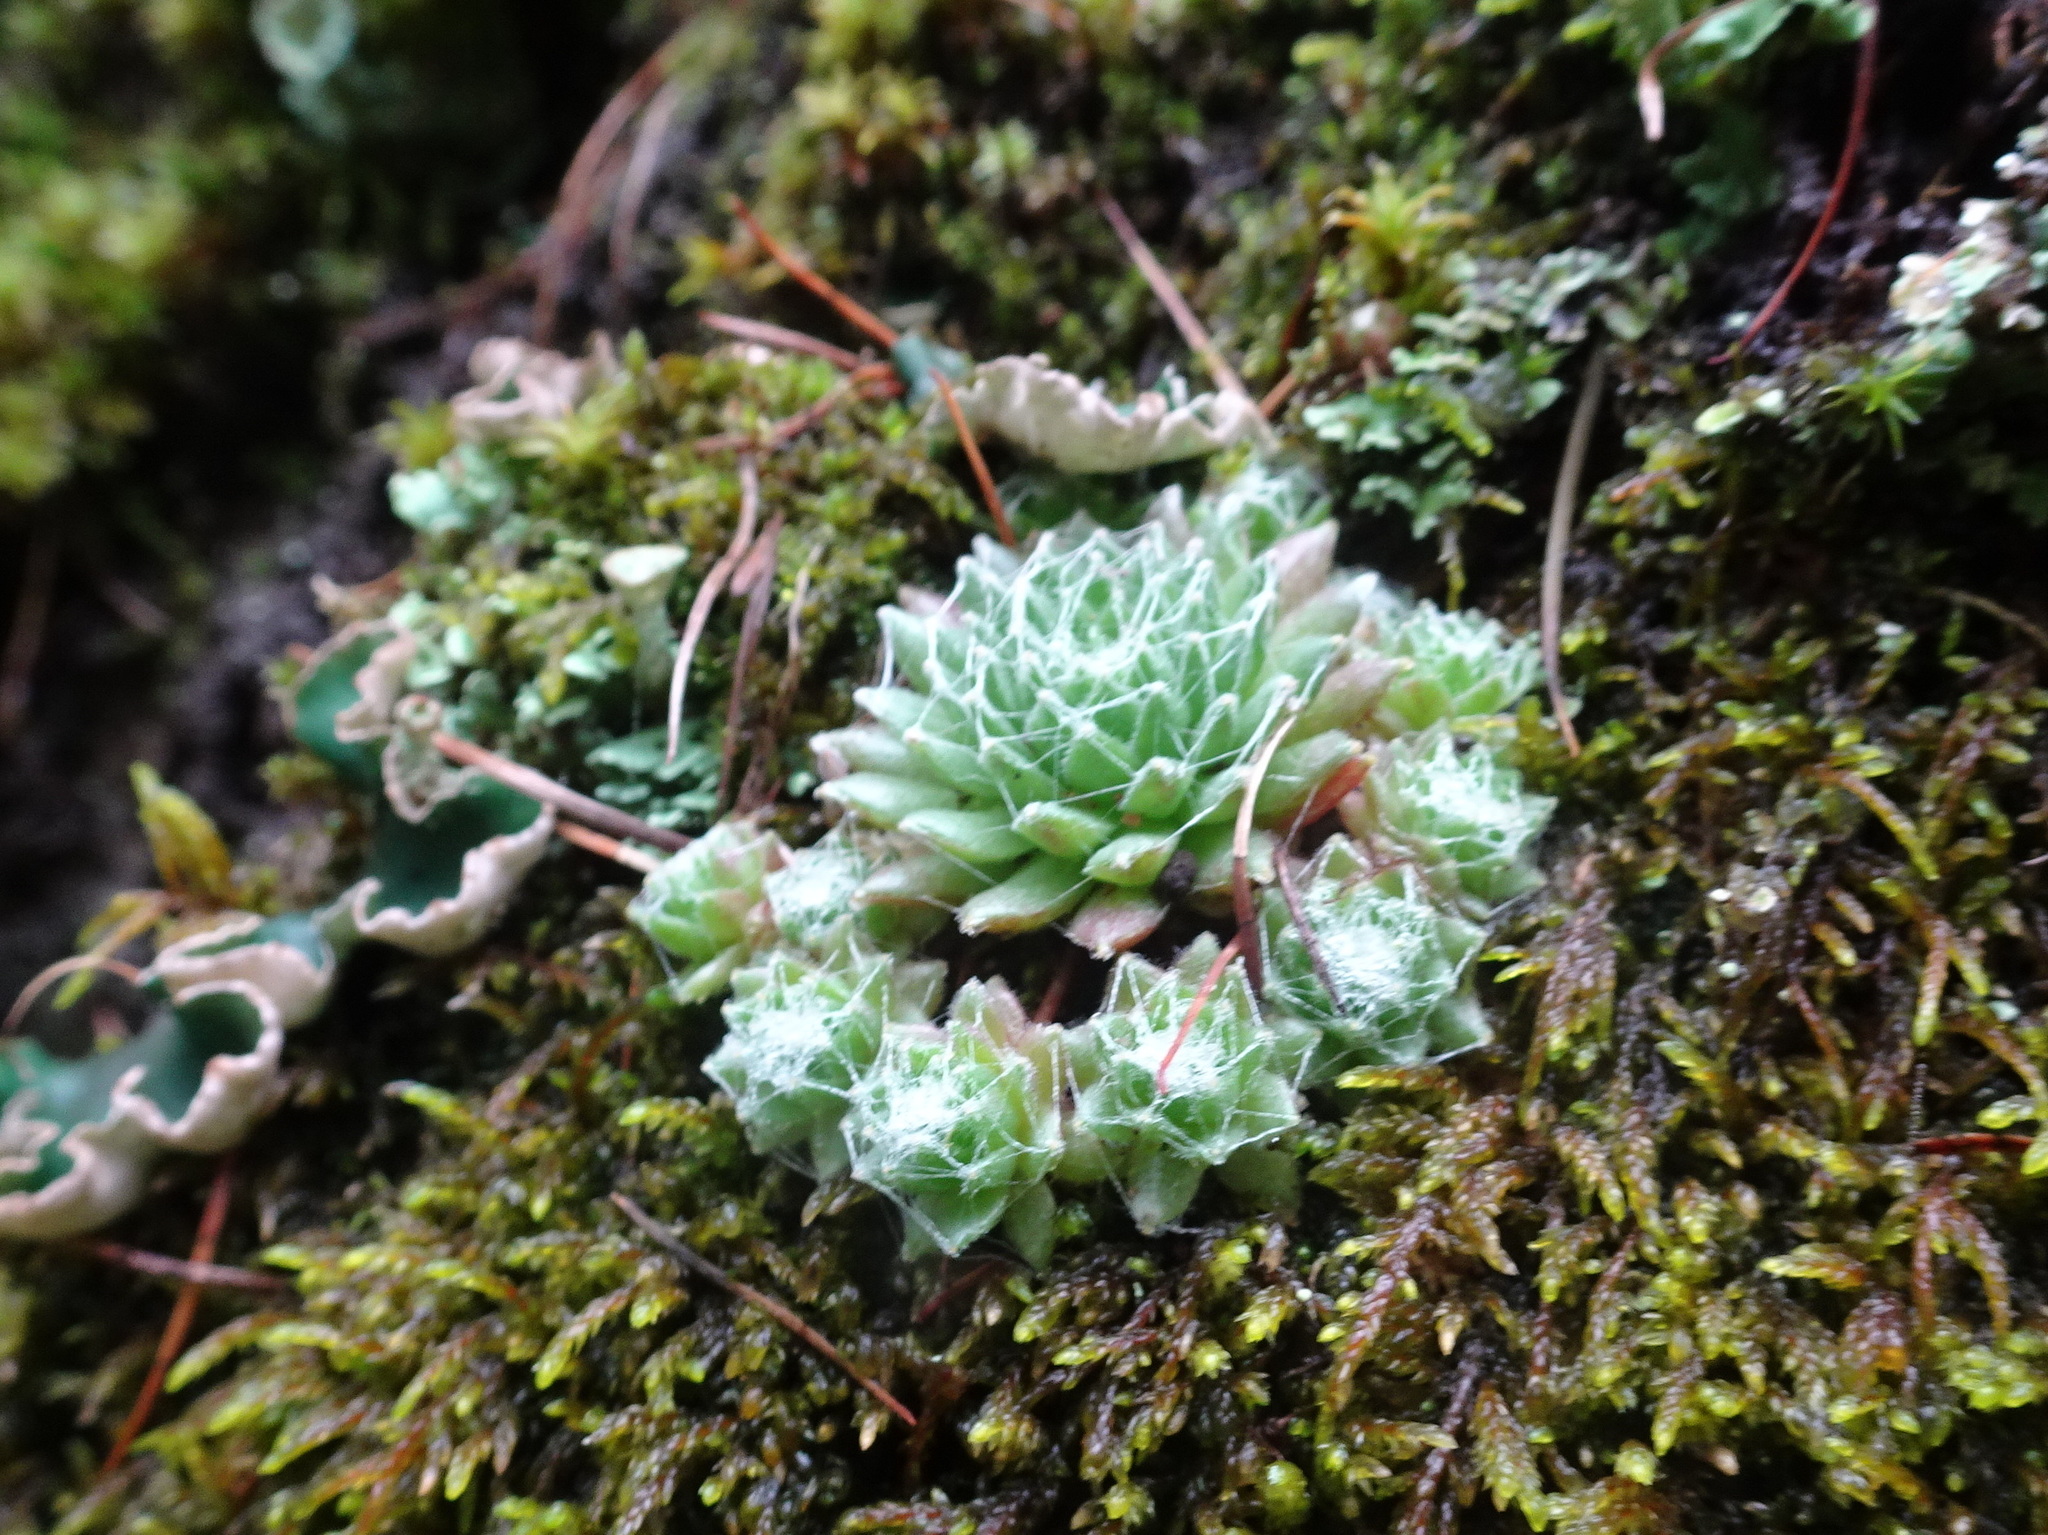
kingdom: Plantae
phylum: Tracheophyta
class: Magnoliopsida
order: Saxifragales
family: Crassulaceae
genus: Sempervivum
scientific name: Sempervivum arachnoideum
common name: Cobweb house-leek
